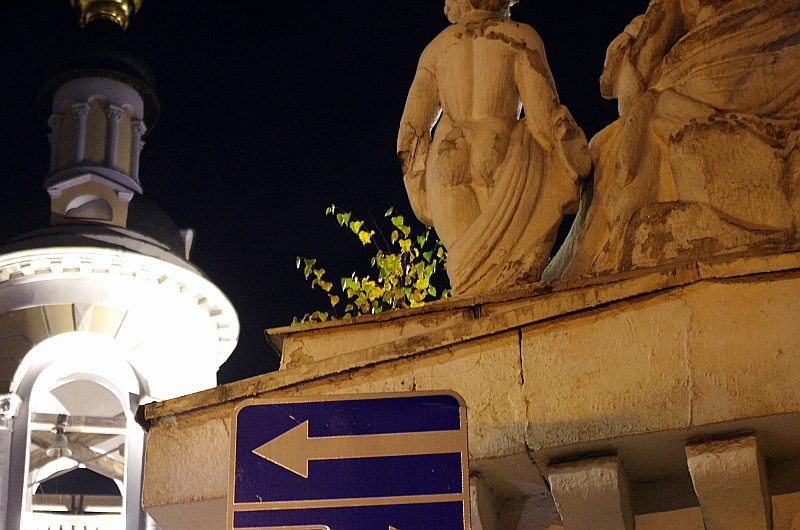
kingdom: Plantae
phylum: Tracheophyta
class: Magnoliopsida
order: Fagales
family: Betulaceae
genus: Betula
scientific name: Betula pendula
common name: Silver birch
